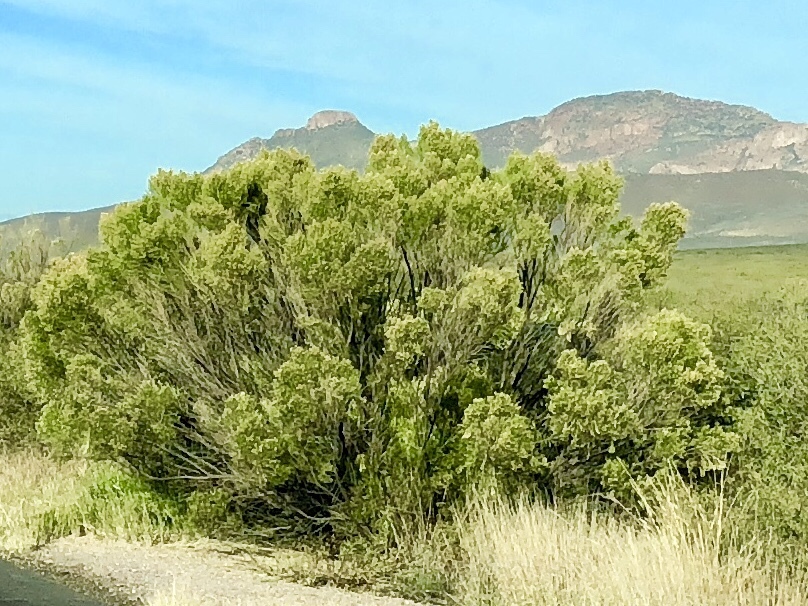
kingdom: Plantae
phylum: Tracheophyta
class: Magnoliopsida
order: Asterales
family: Asteraceae
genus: Baccharis
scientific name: Baccharis sarothroides
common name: Desert-broom
